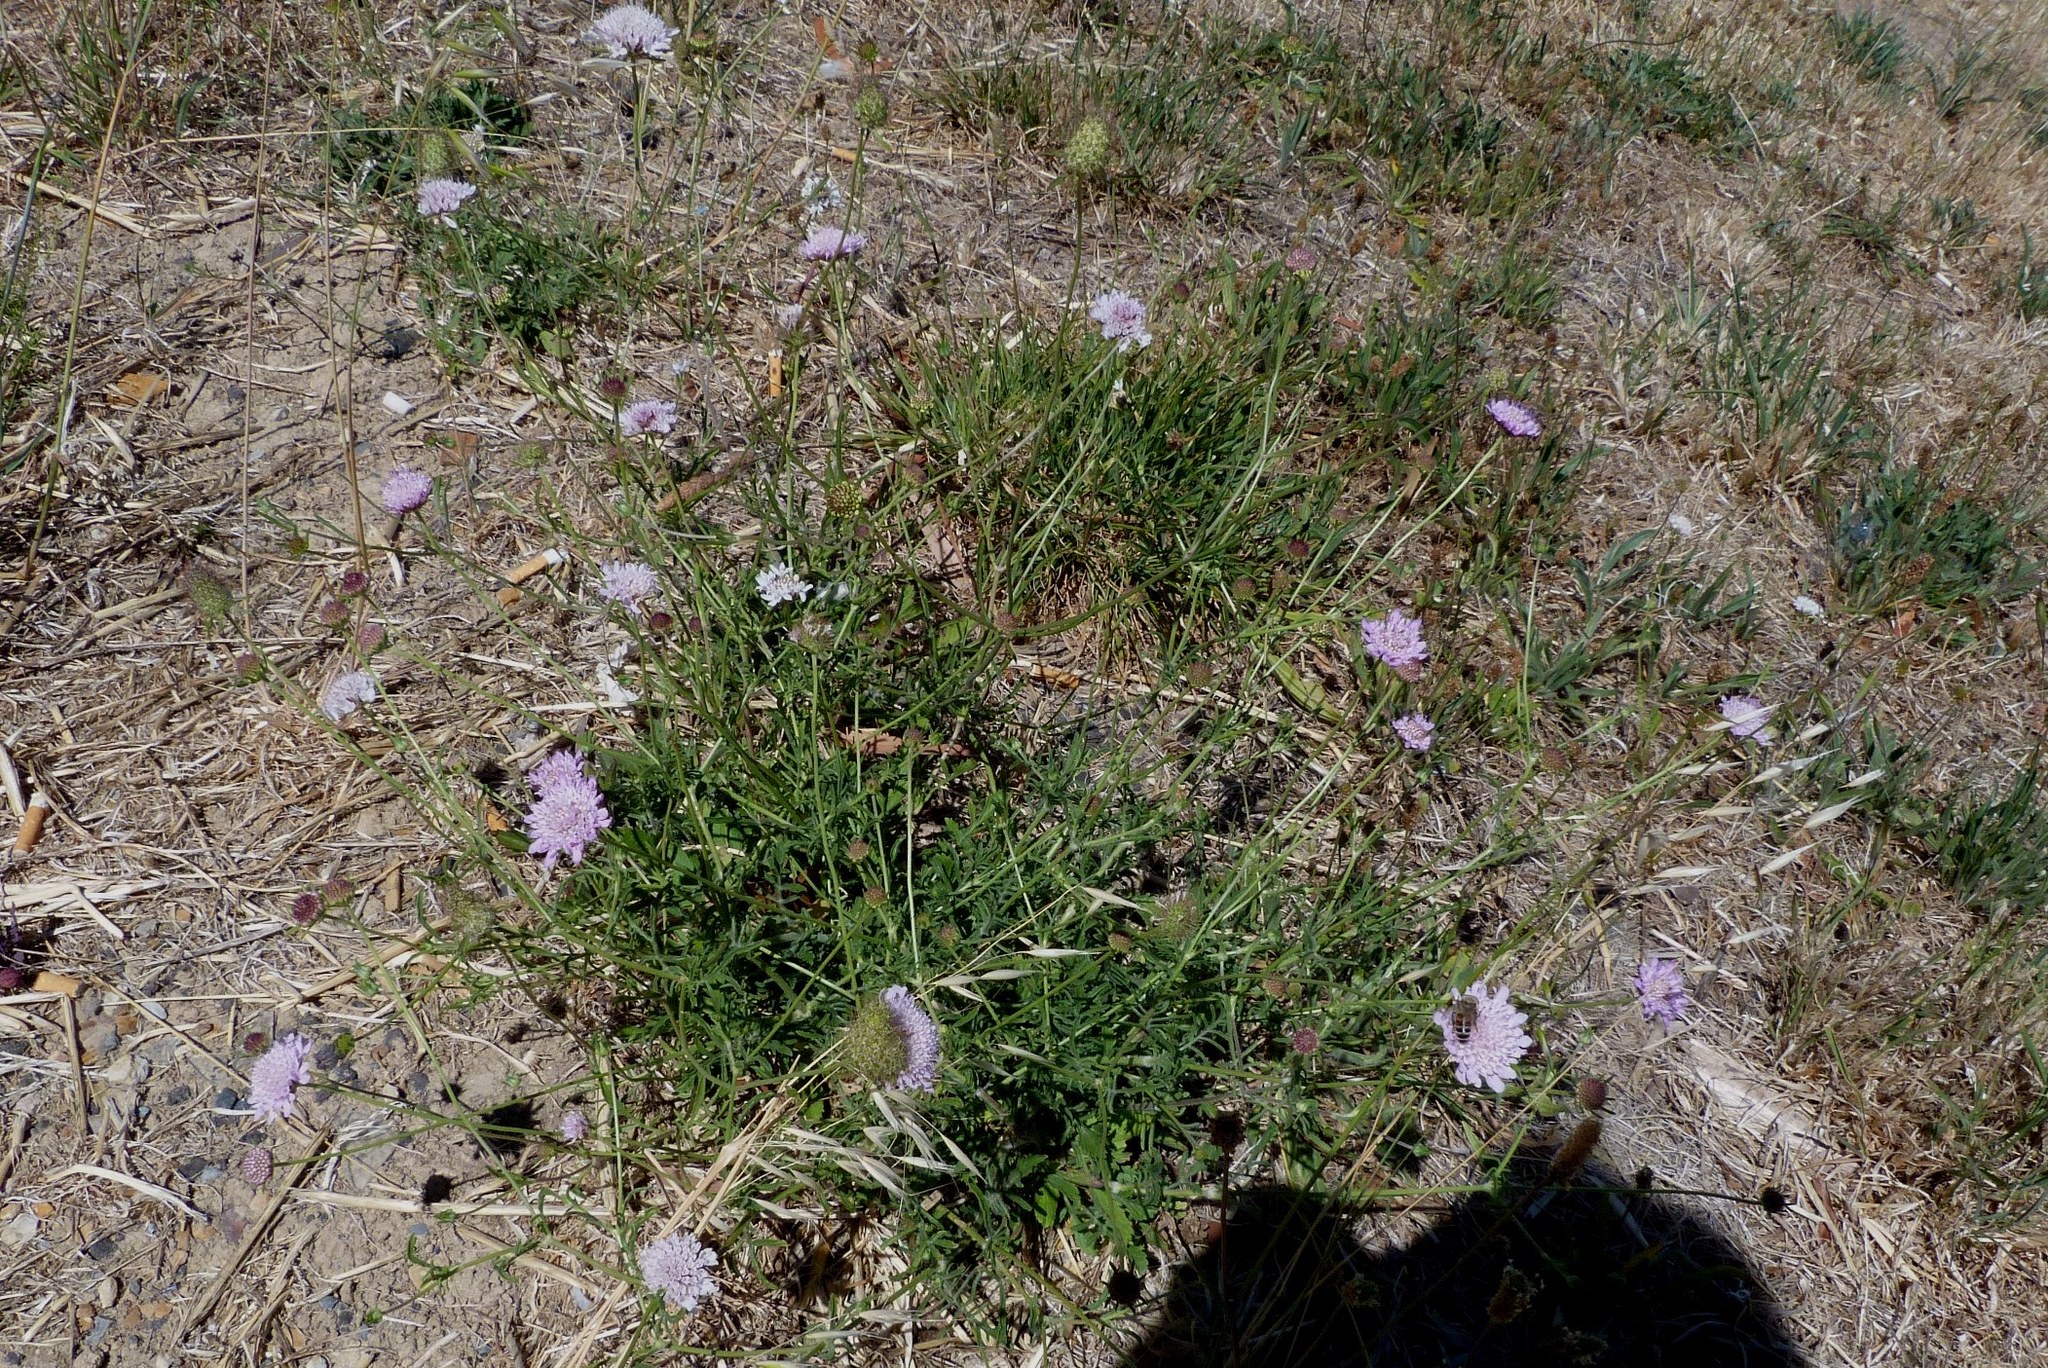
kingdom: Plantae
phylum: Tracheophyta
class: Magnoliopsida
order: Dipsacales
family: Caprifoliaceae
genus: Sixalix
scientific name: Sixalix atropurpurea
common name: Sweet scabious
